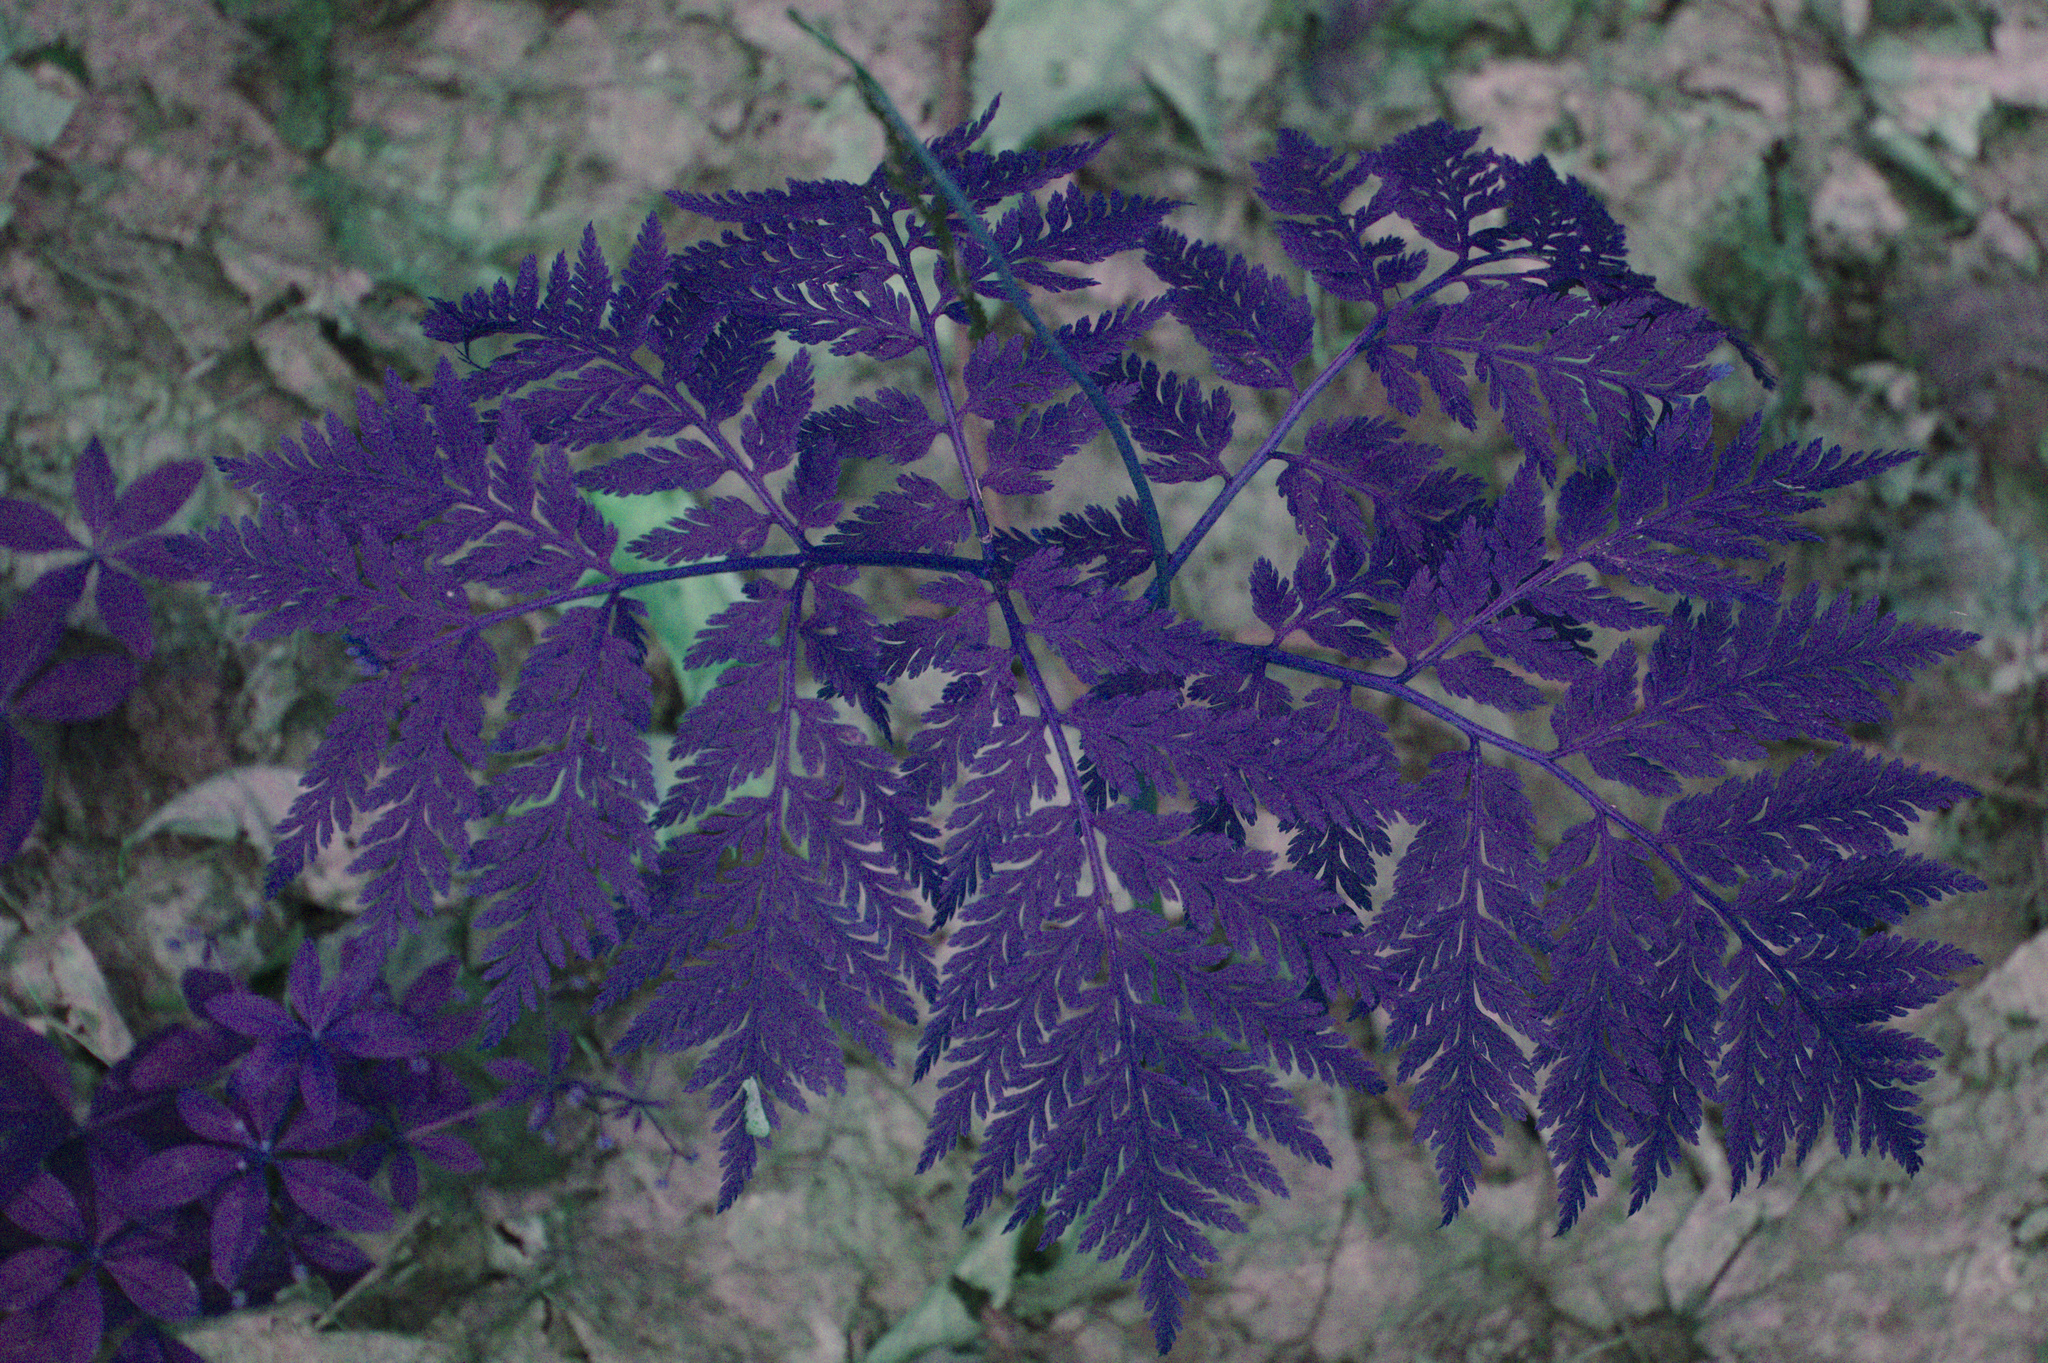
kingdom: Plantae
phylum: Tracheophyta
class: Polypodiopsida
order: Ophioglossales
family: Ophioglossaceae
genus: Botrypus
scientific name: Botrypus virginianus
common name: Common grapefern
